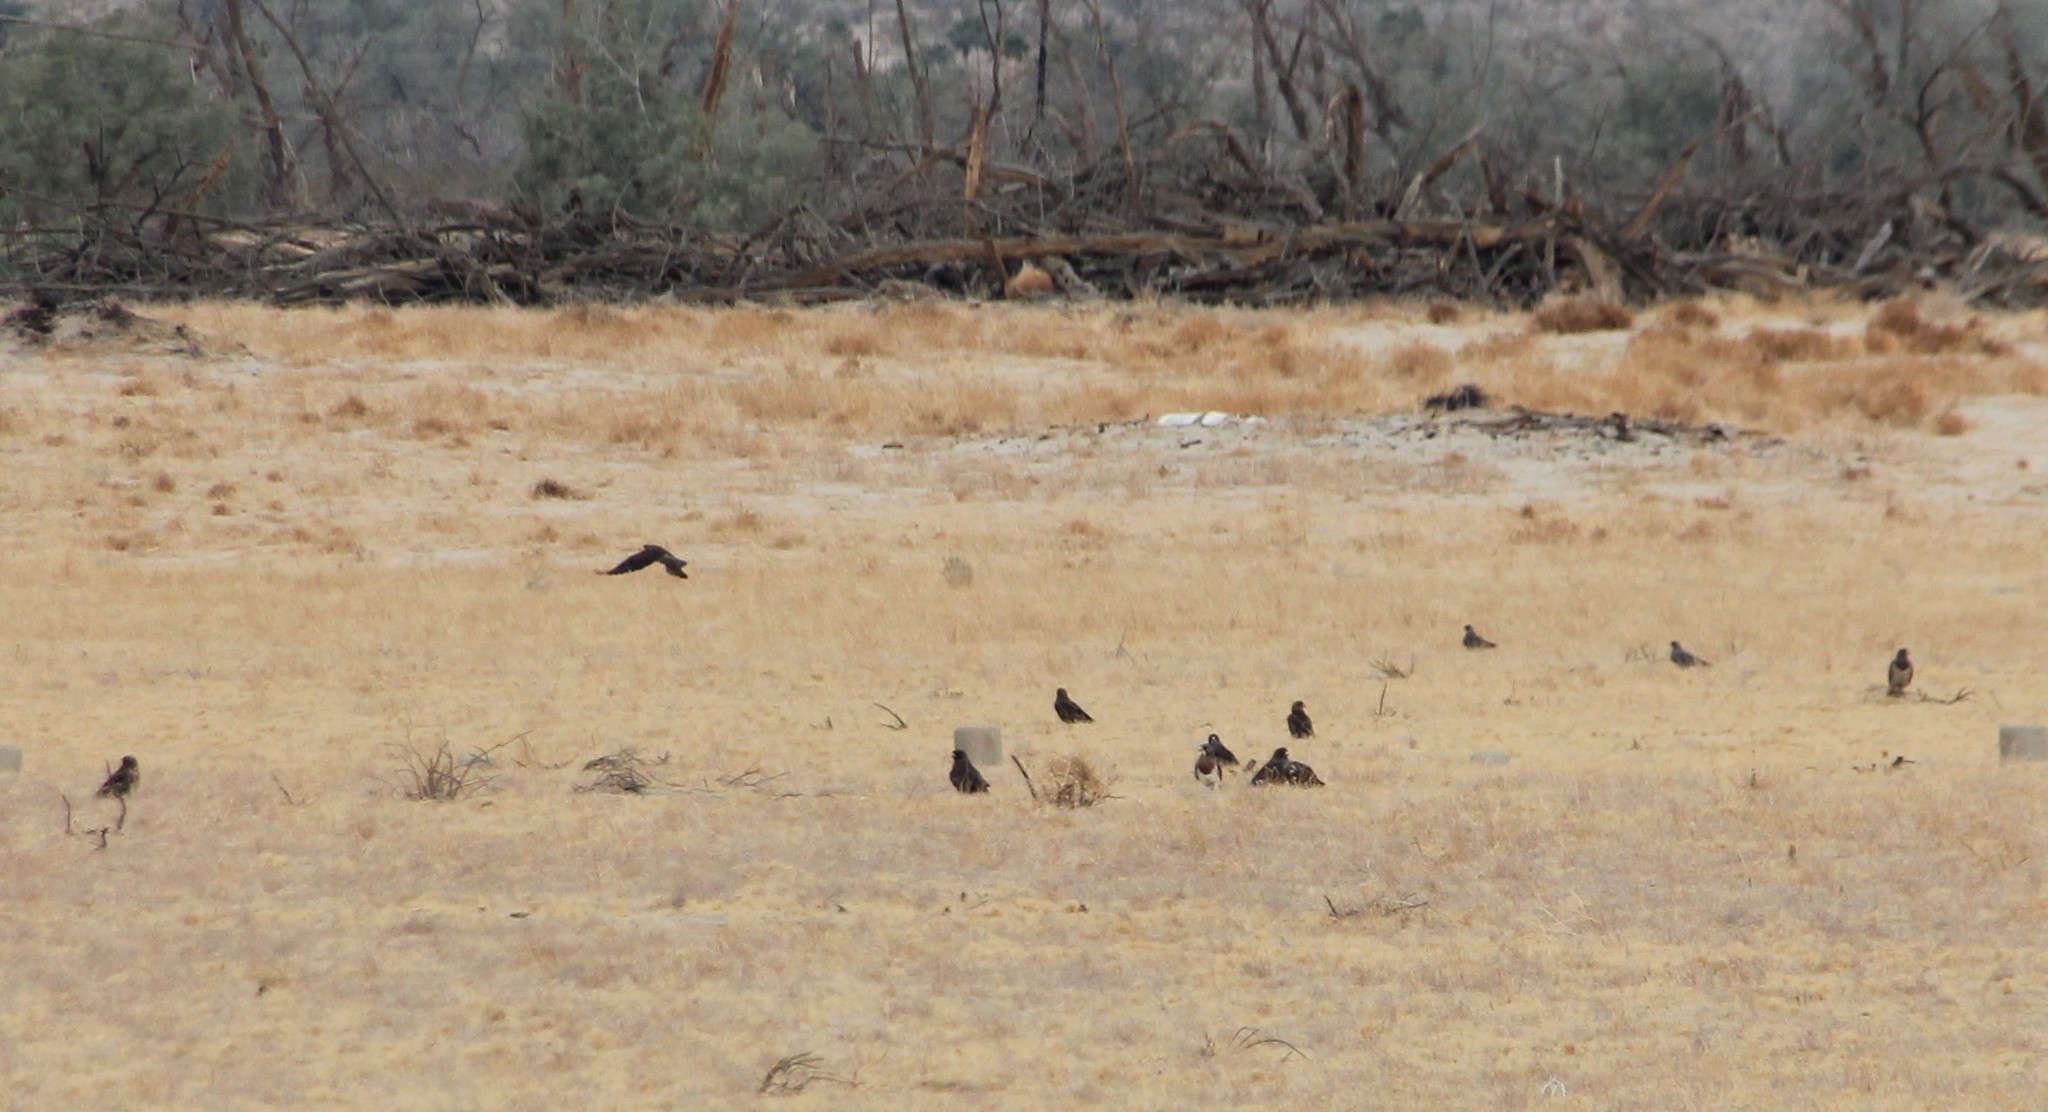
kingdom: Animalia
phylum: Chordata
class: Aves
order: Accipitriformes
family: Accipitridae
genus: Buteo
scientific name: Buteo swainsoni
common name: Swainson's hawk
